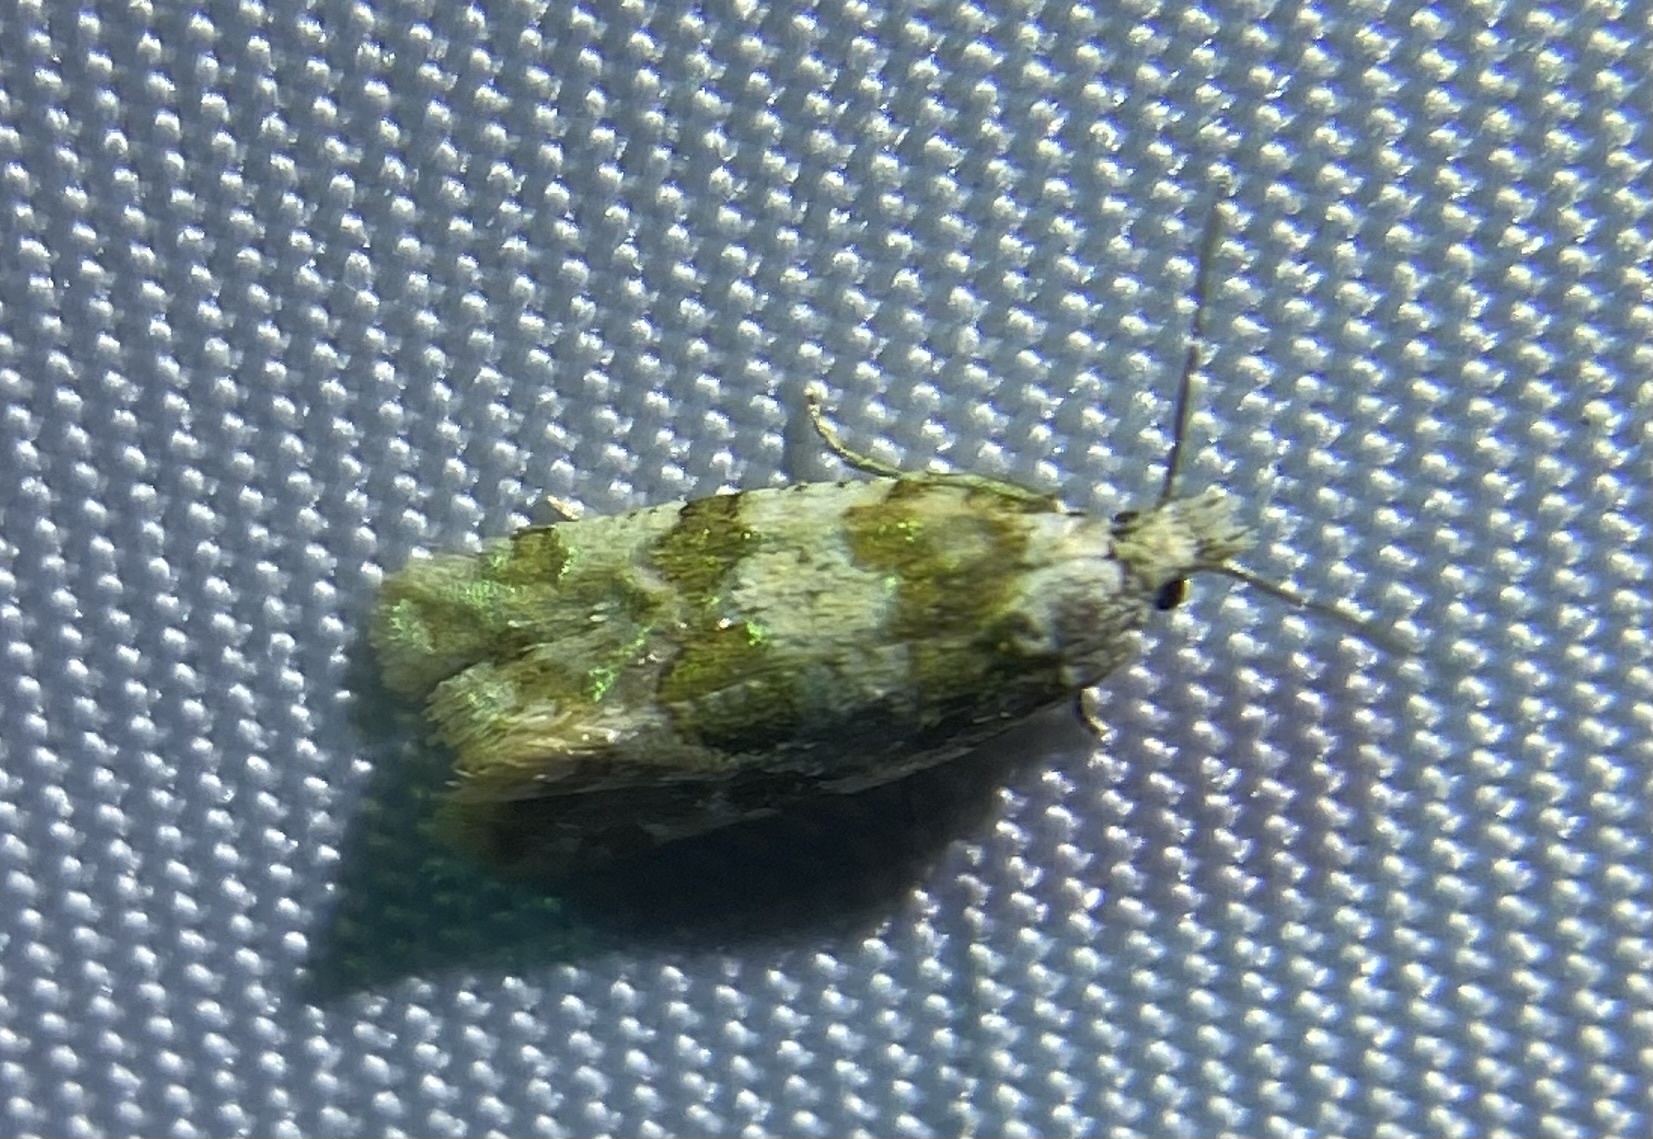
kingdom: Animalia
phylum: Arthropoda
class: Insecta
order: Lepidoptera
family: Tortricidae
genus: Aethes
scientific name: Aethes argentilimitana
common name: Silver-bordered aethes
